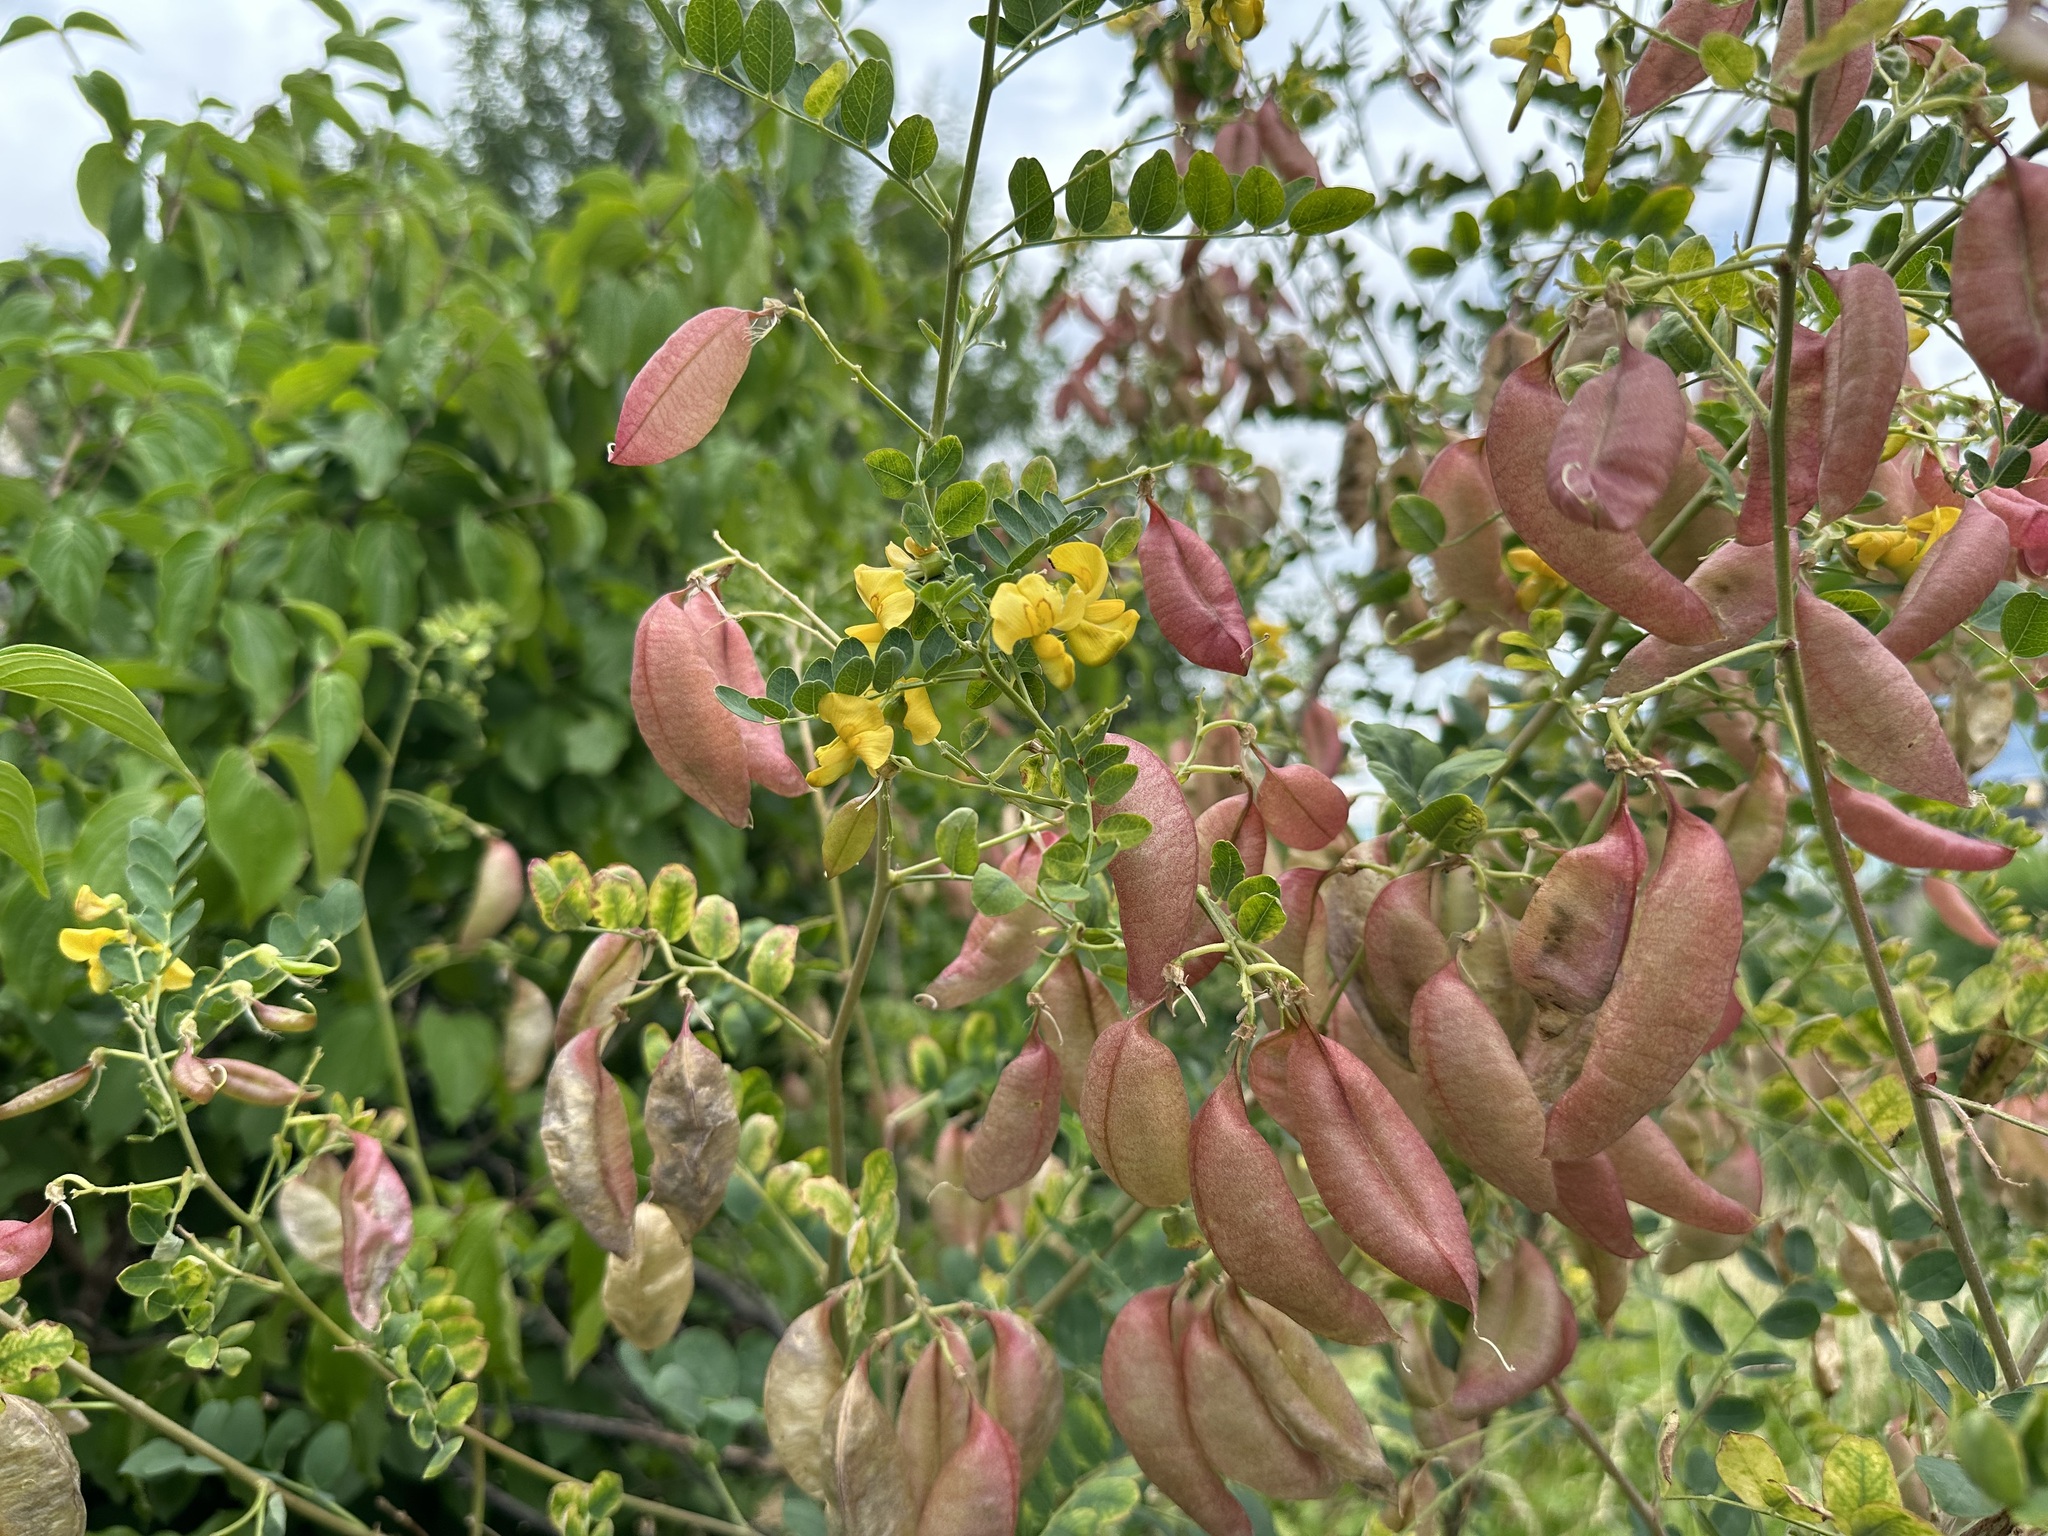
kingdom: Plantae
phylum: Tracheophyta
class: Magnoliopsida
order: Fabales
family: Fabaceae
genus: Colutea
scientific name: Colutea arborescens
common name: Bladder-senna
